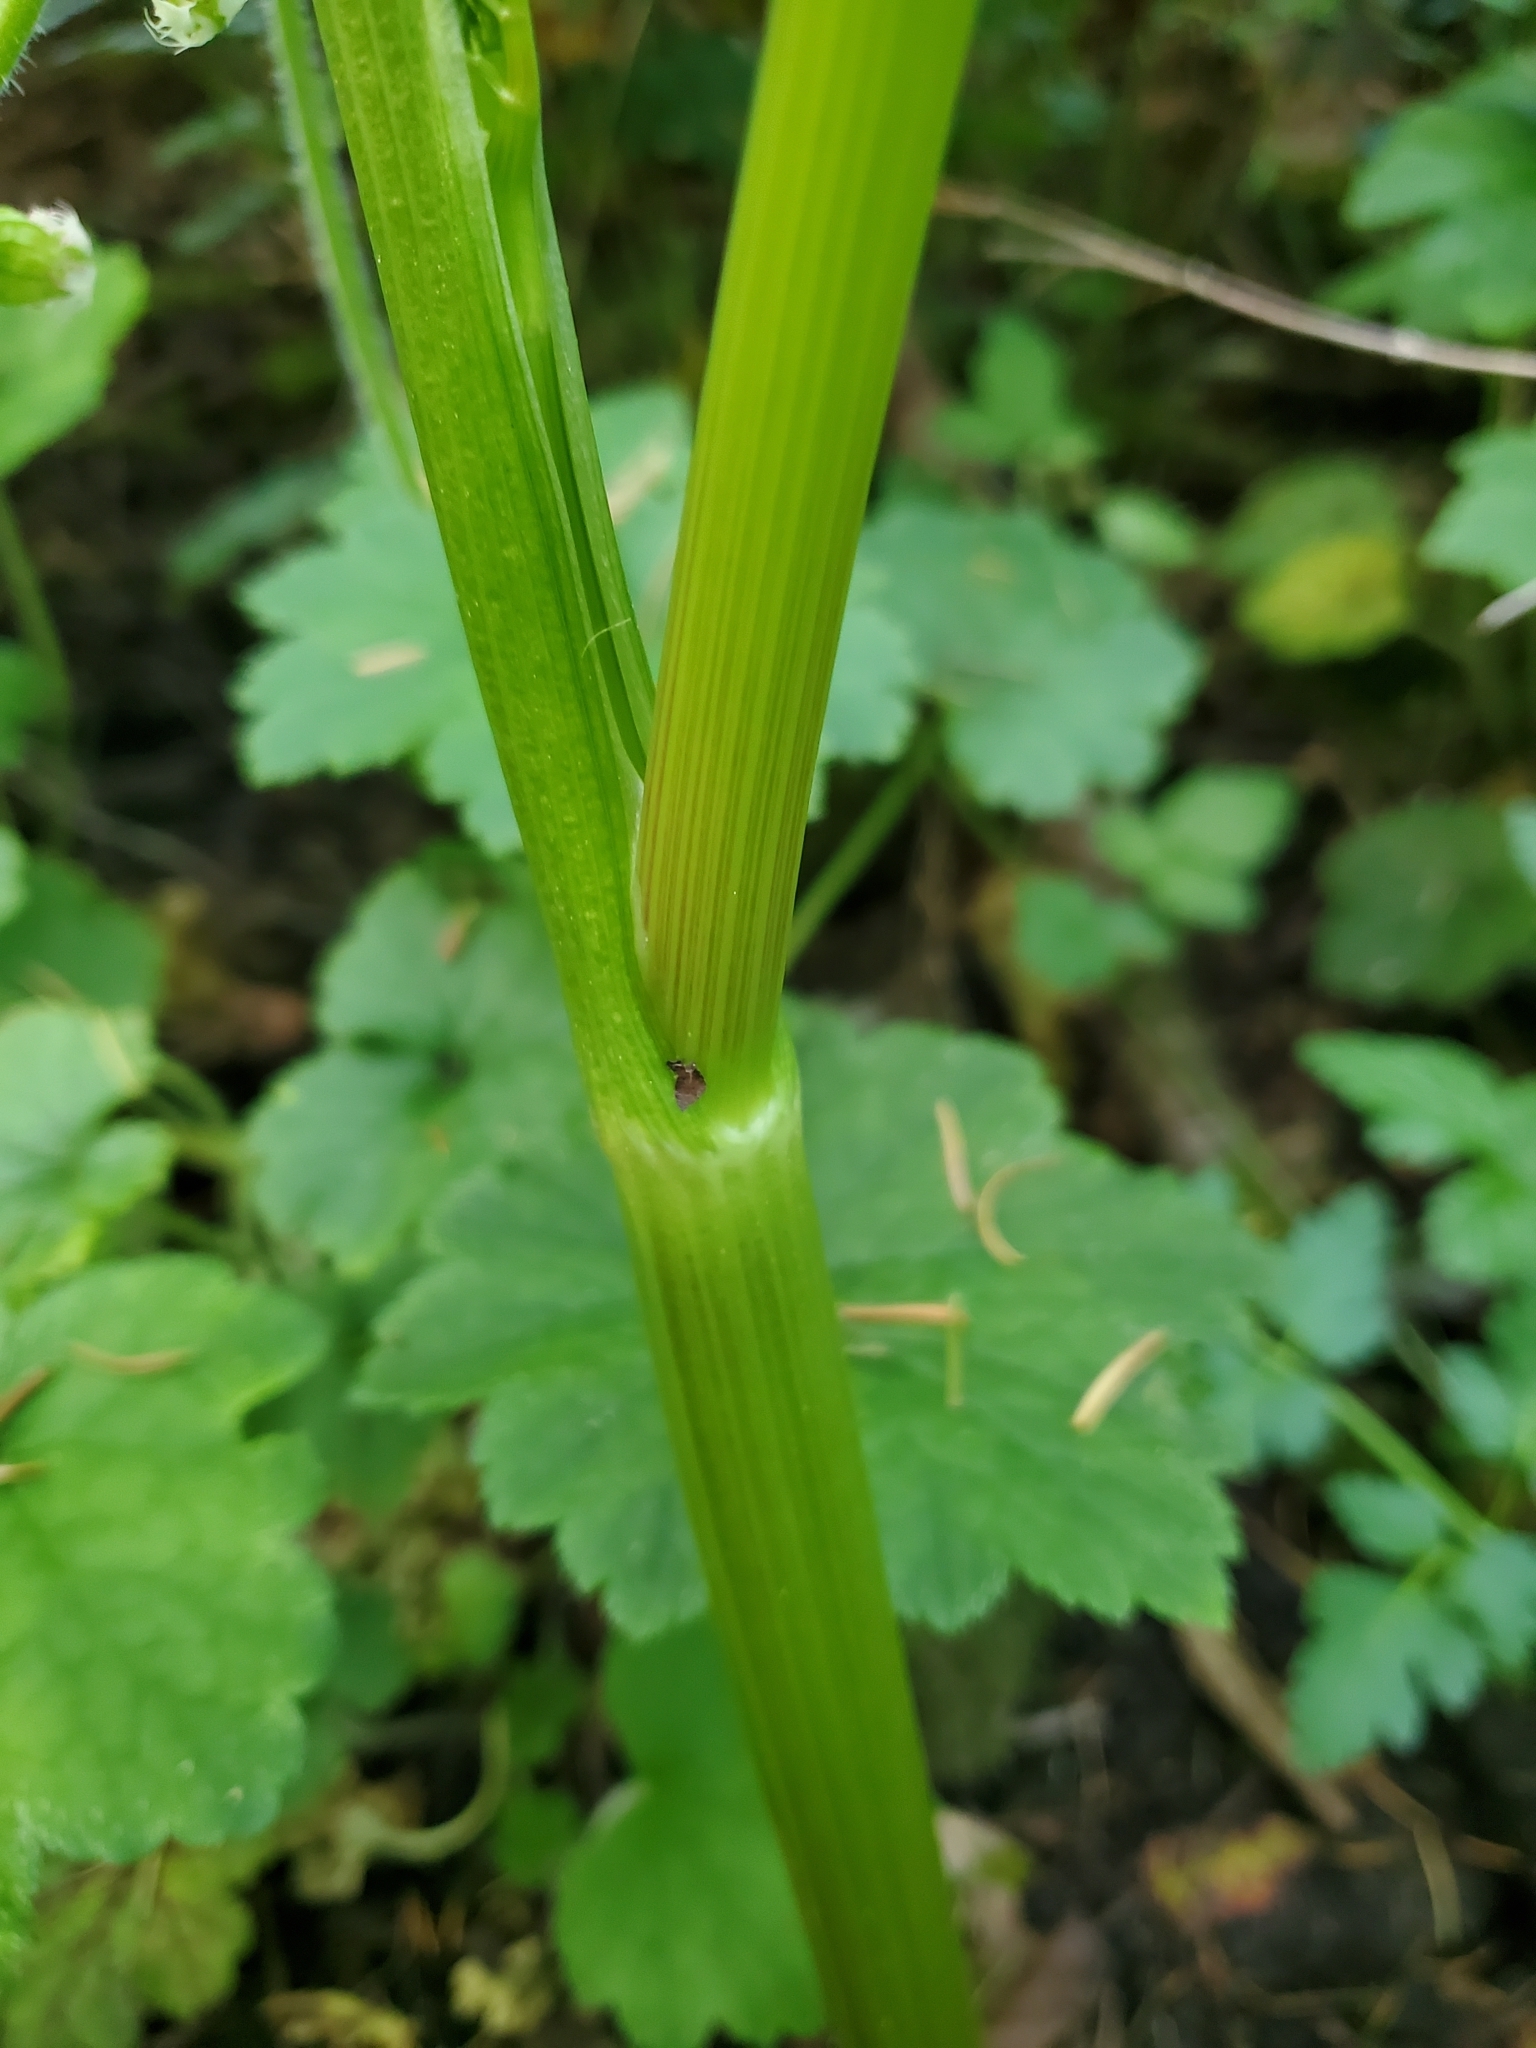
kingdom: Plantae
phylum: Tracheophyta
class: Magnoliopsida
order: Apiales
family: Apiaceae
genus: Oenanthe
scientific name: Oenanthe sarmentosa
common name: American water-parsley
